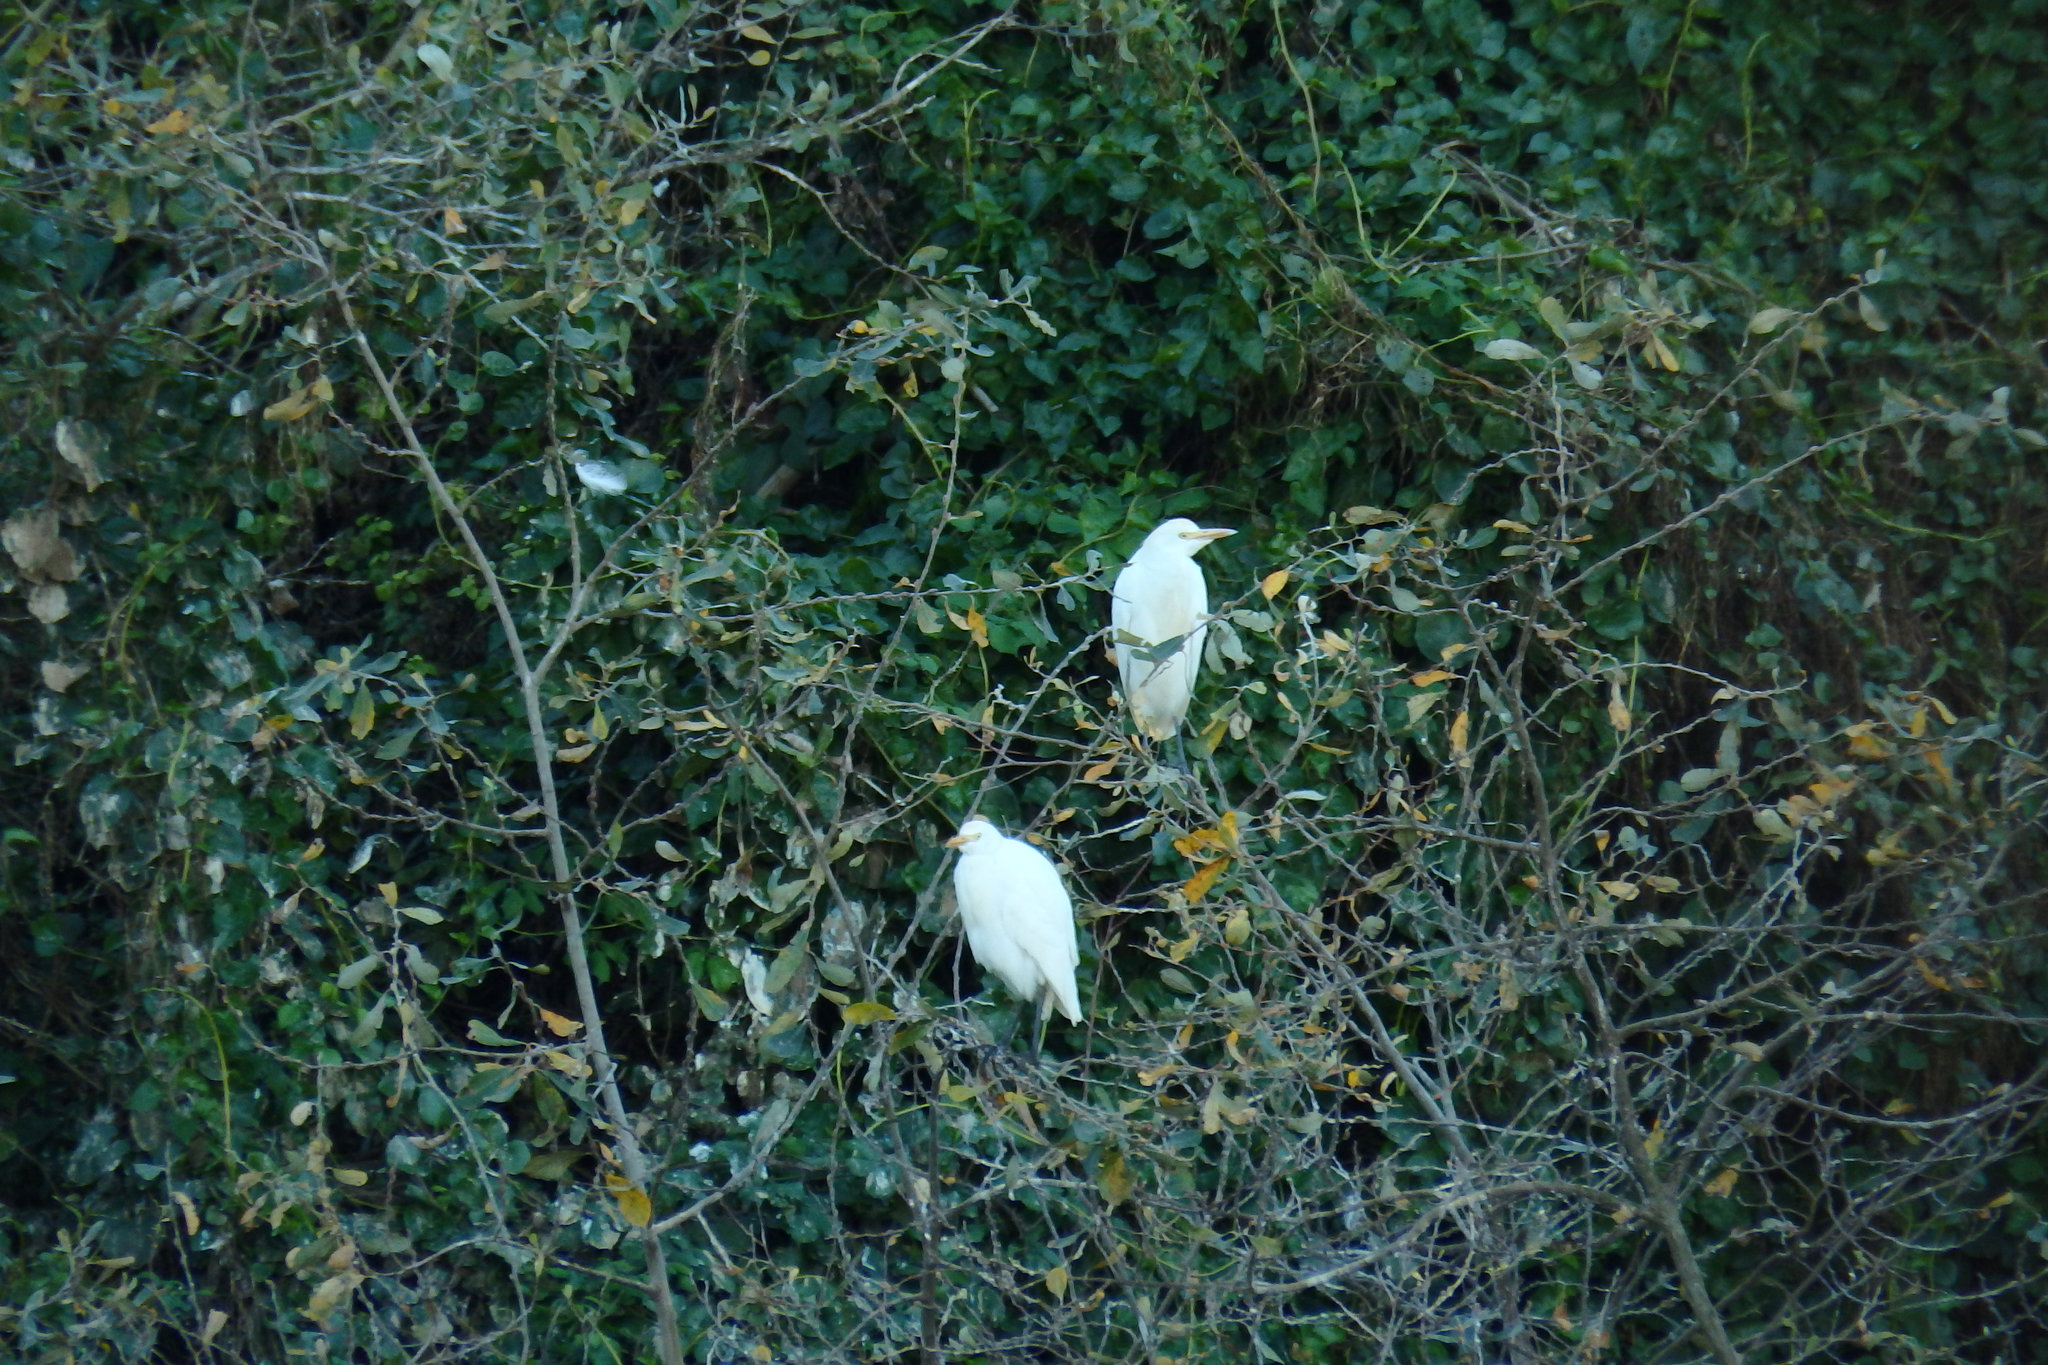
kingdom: Animalia
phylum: Chordata
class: Aves
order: Pelecaniformes
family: Ardeidae
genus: Bubulcus
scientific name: Bubulcus ibis
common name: Cattle egret
